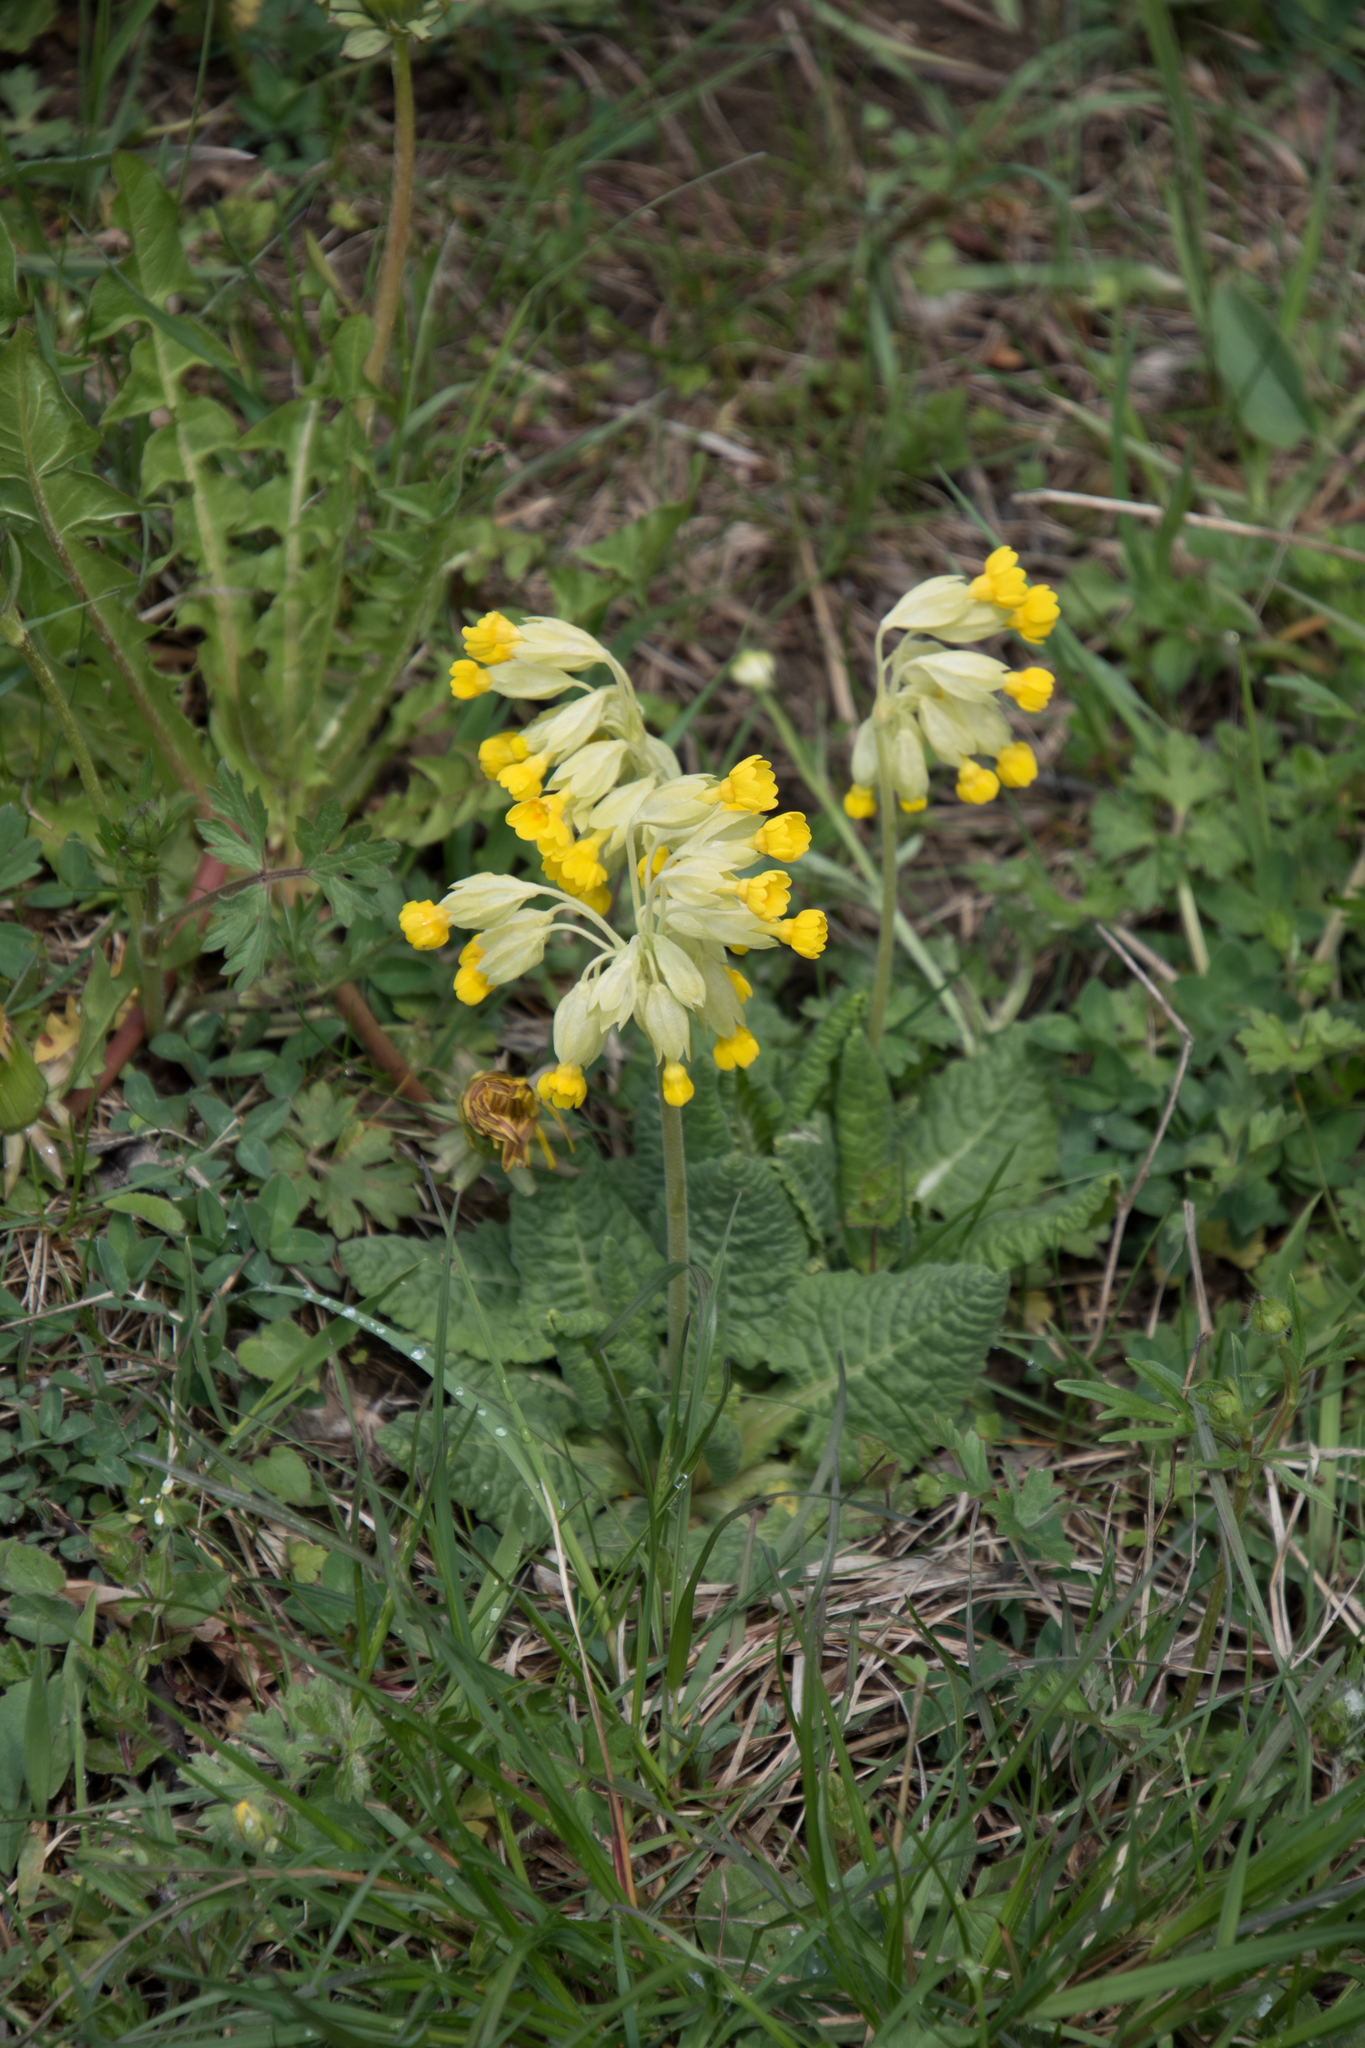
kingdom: Plantae
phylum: Tracheophyta
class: Magnoliopsida
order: Ericales
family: Primulaceae
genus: Primula
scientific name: Primula veris
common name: Cowslip
